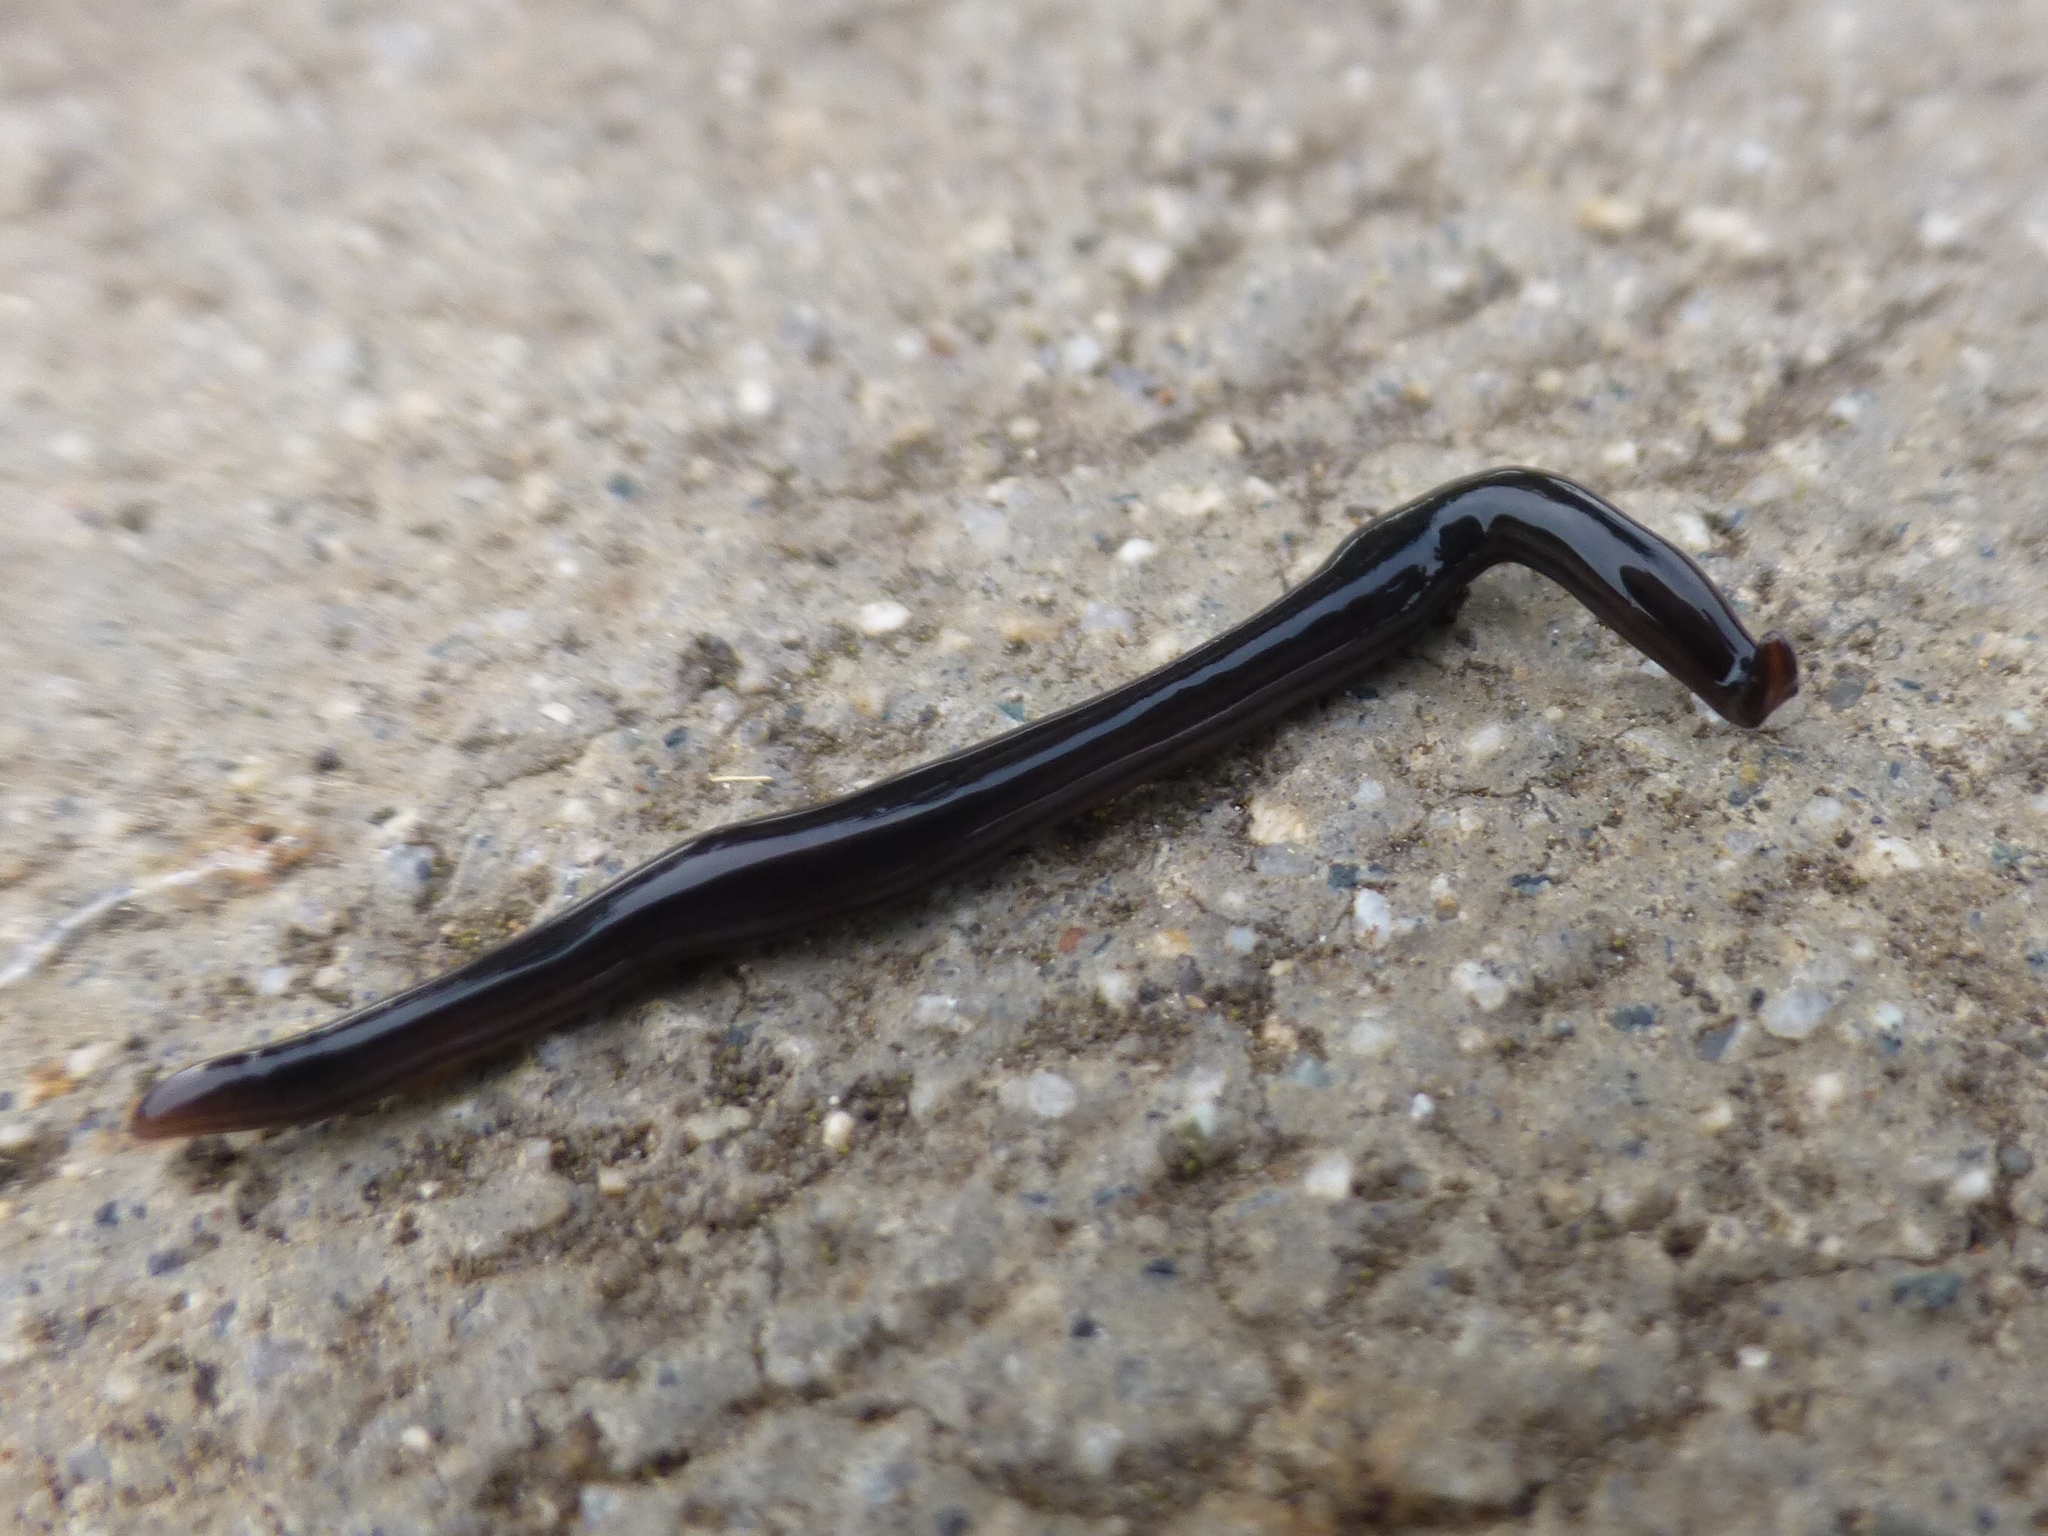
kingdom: Animalia
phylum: Platyhelminthes
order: Tricladida
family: Geoplanidae
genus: Endeavouria
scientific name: Endeavouria septemlineata
